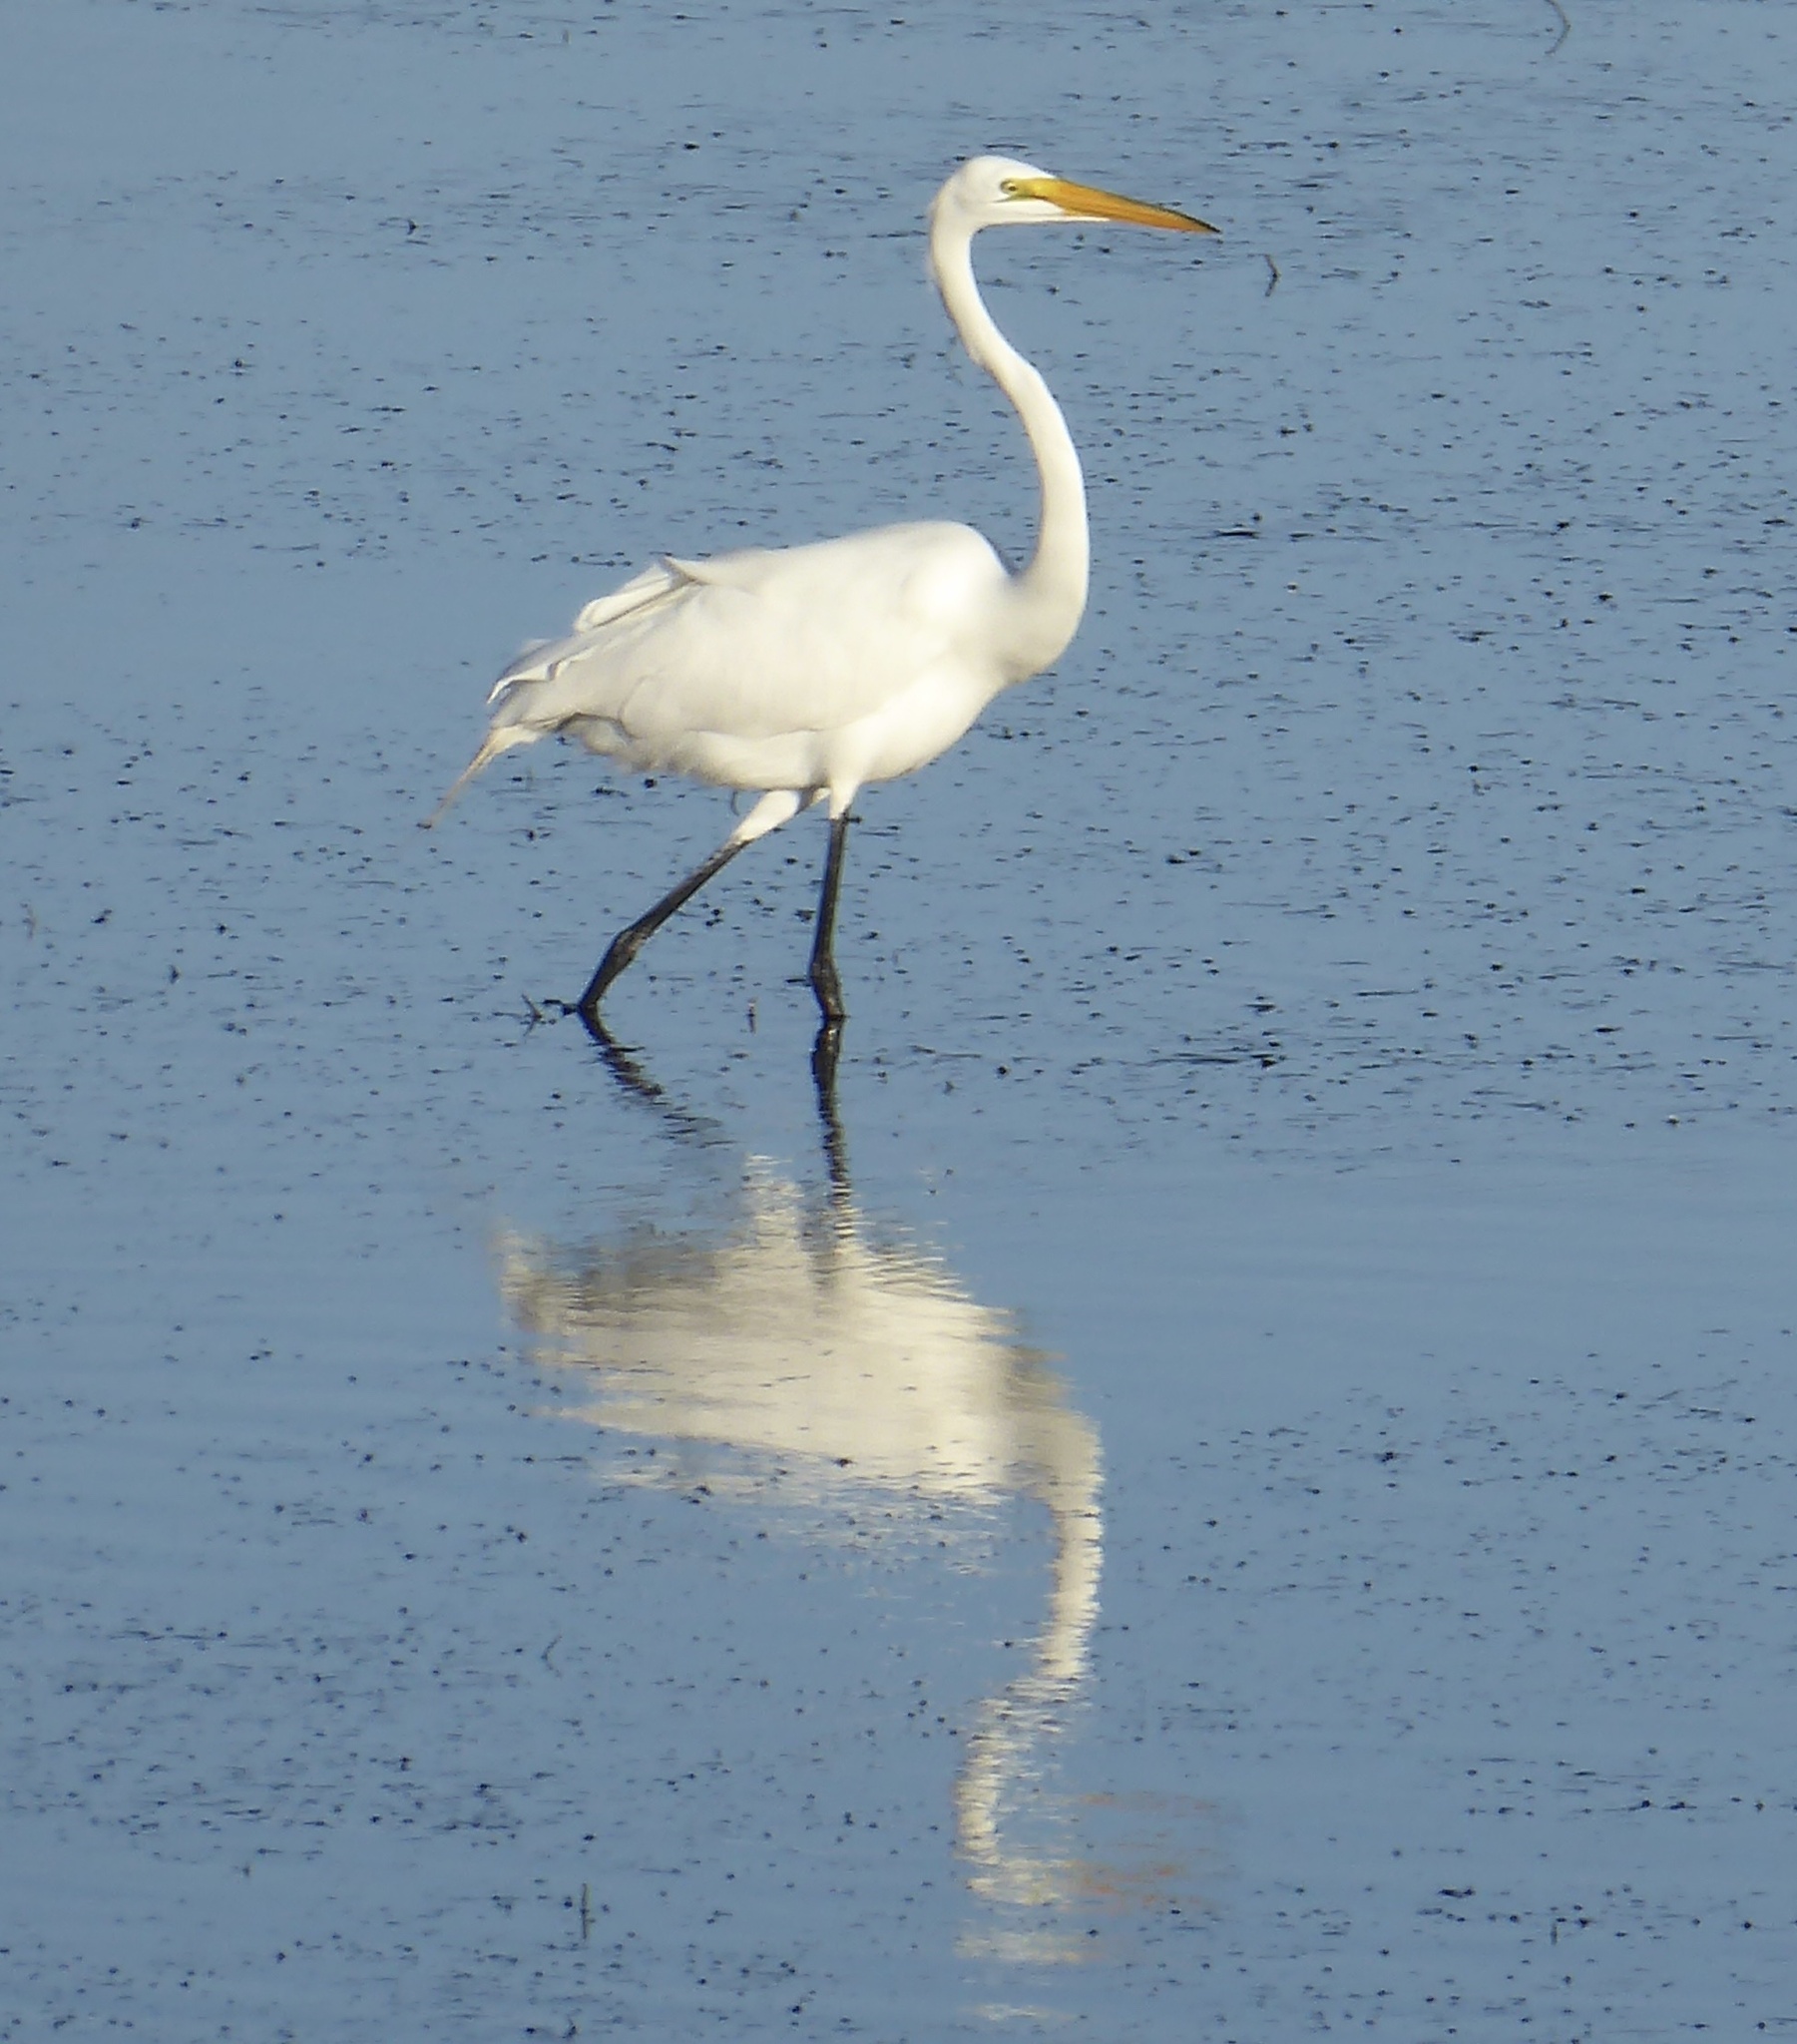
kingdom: Animalia
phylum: Chordata
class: Aves
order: Pelecaniformes
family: Ardeidae
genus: Ardea
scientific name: Ardea alba
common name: Great egret
